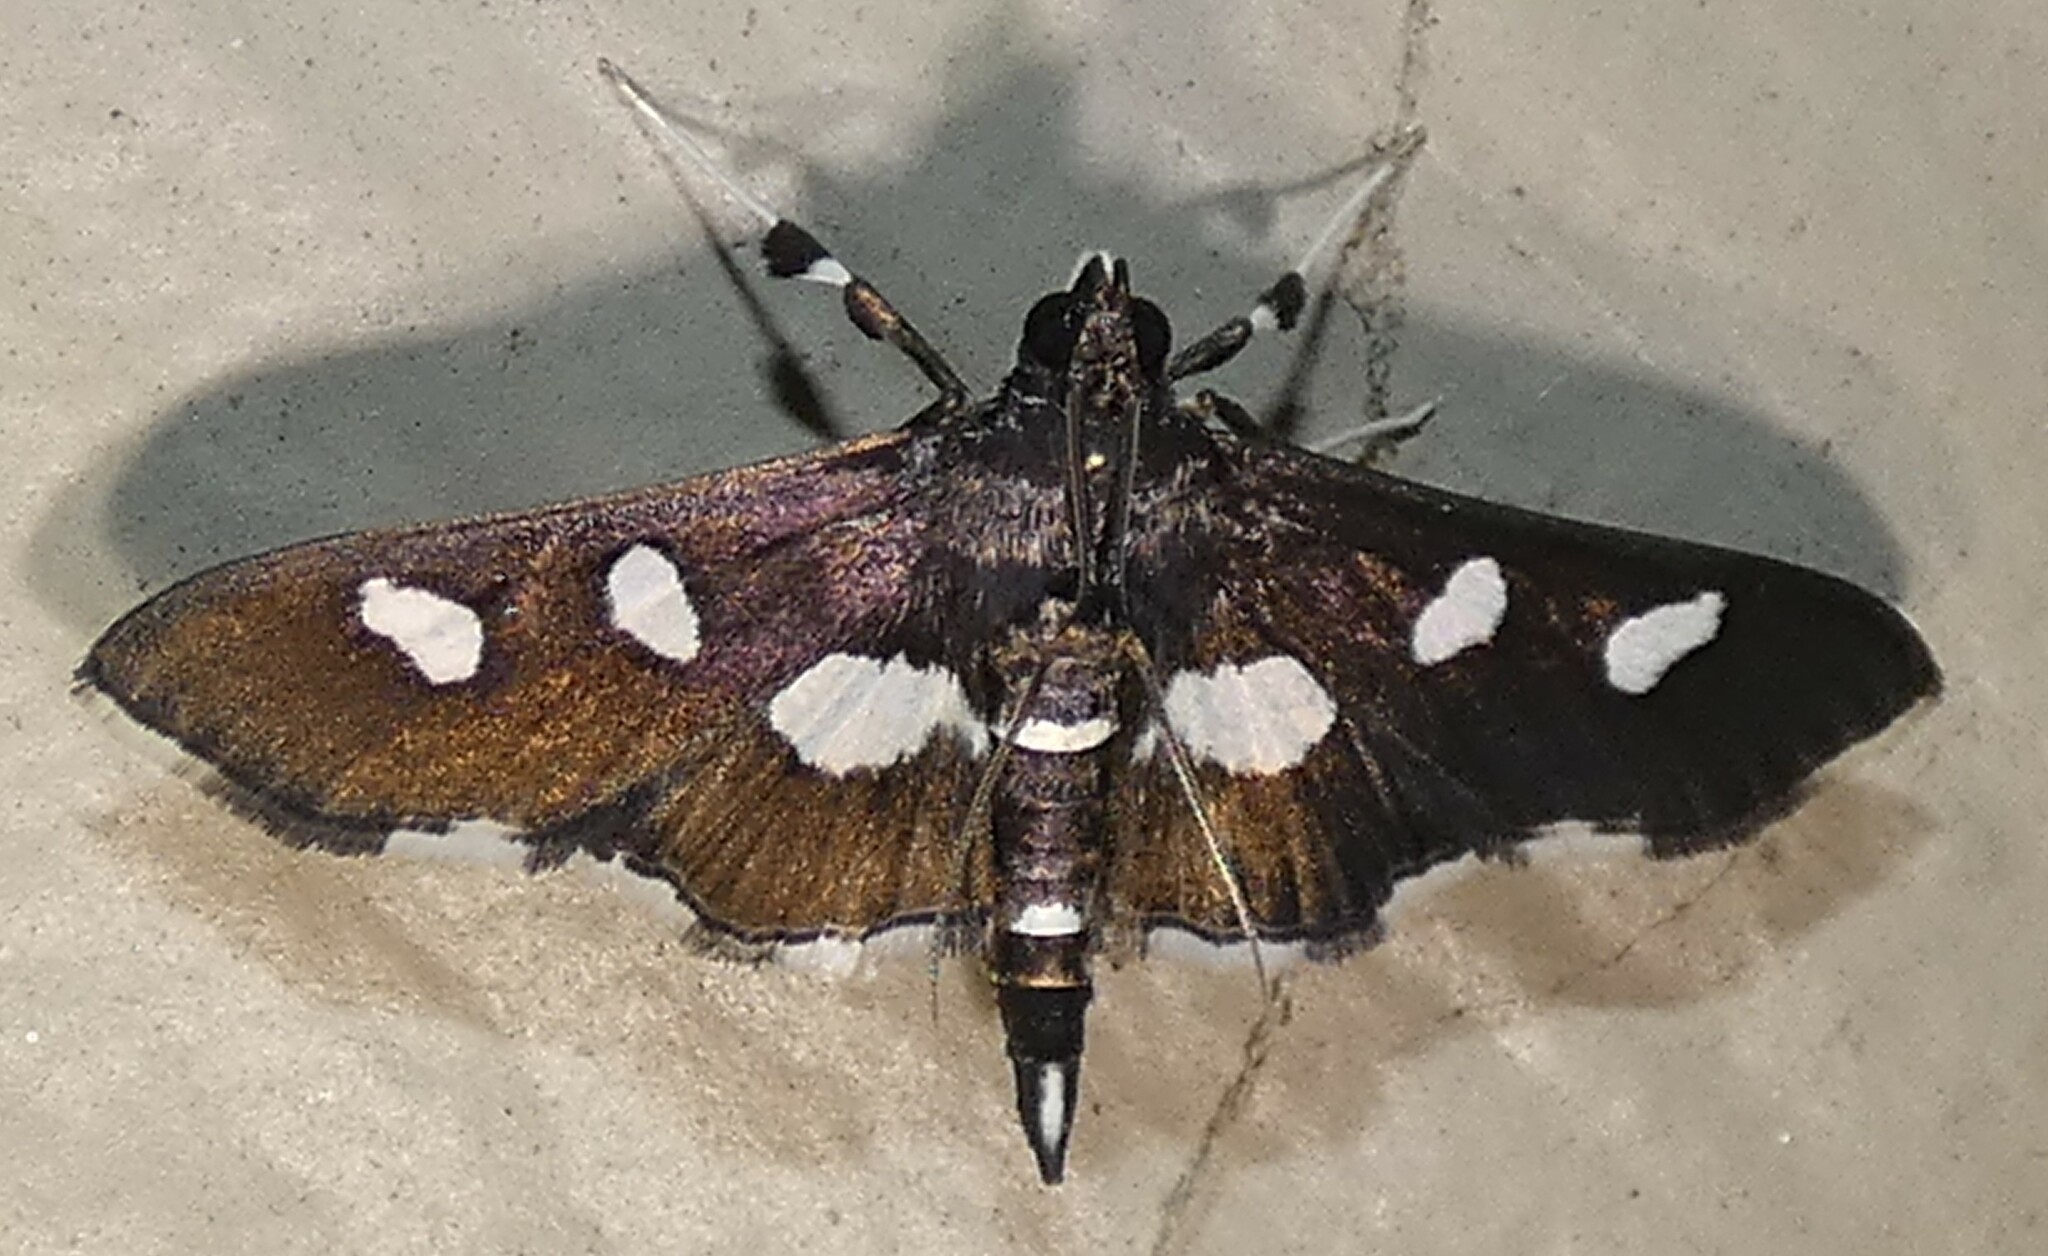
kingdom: Animalia
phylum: Arthropoda
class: Insecta
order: Lepidoptera
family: Crambidae
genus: Desmia
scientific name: Desmia funeralis
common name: Grape leaf folder moth
